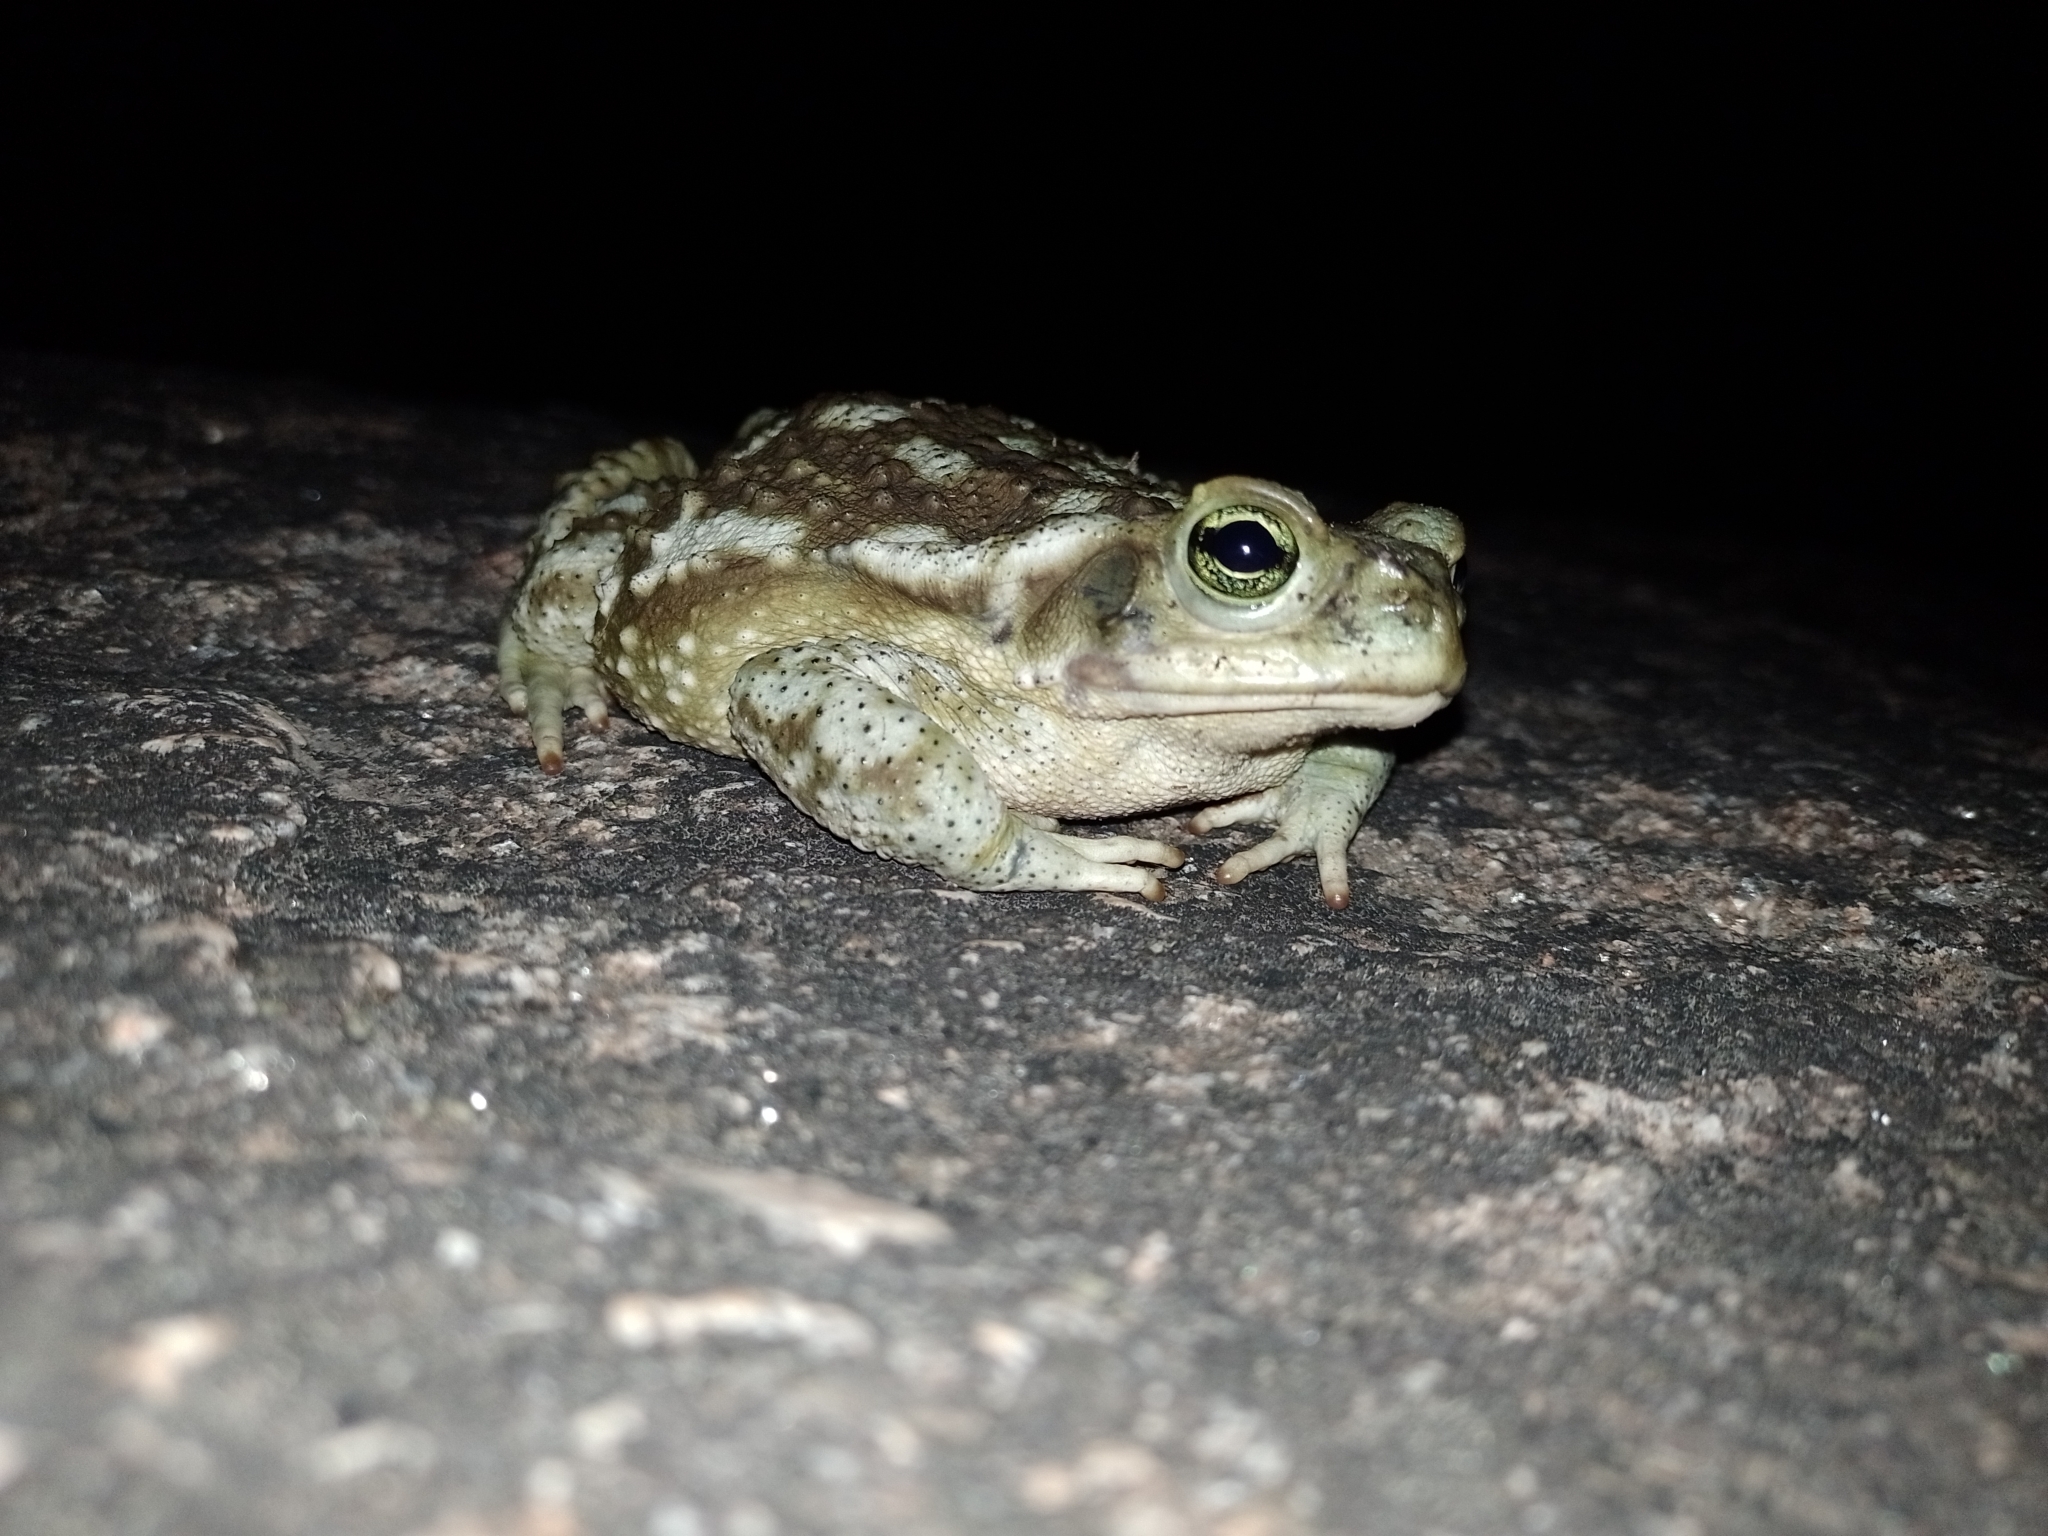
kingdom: Animalia
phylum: Chordata
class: Amphibia
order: Anura
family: Bufonidae
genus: Rhinella
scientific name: Rhinella arenarum
